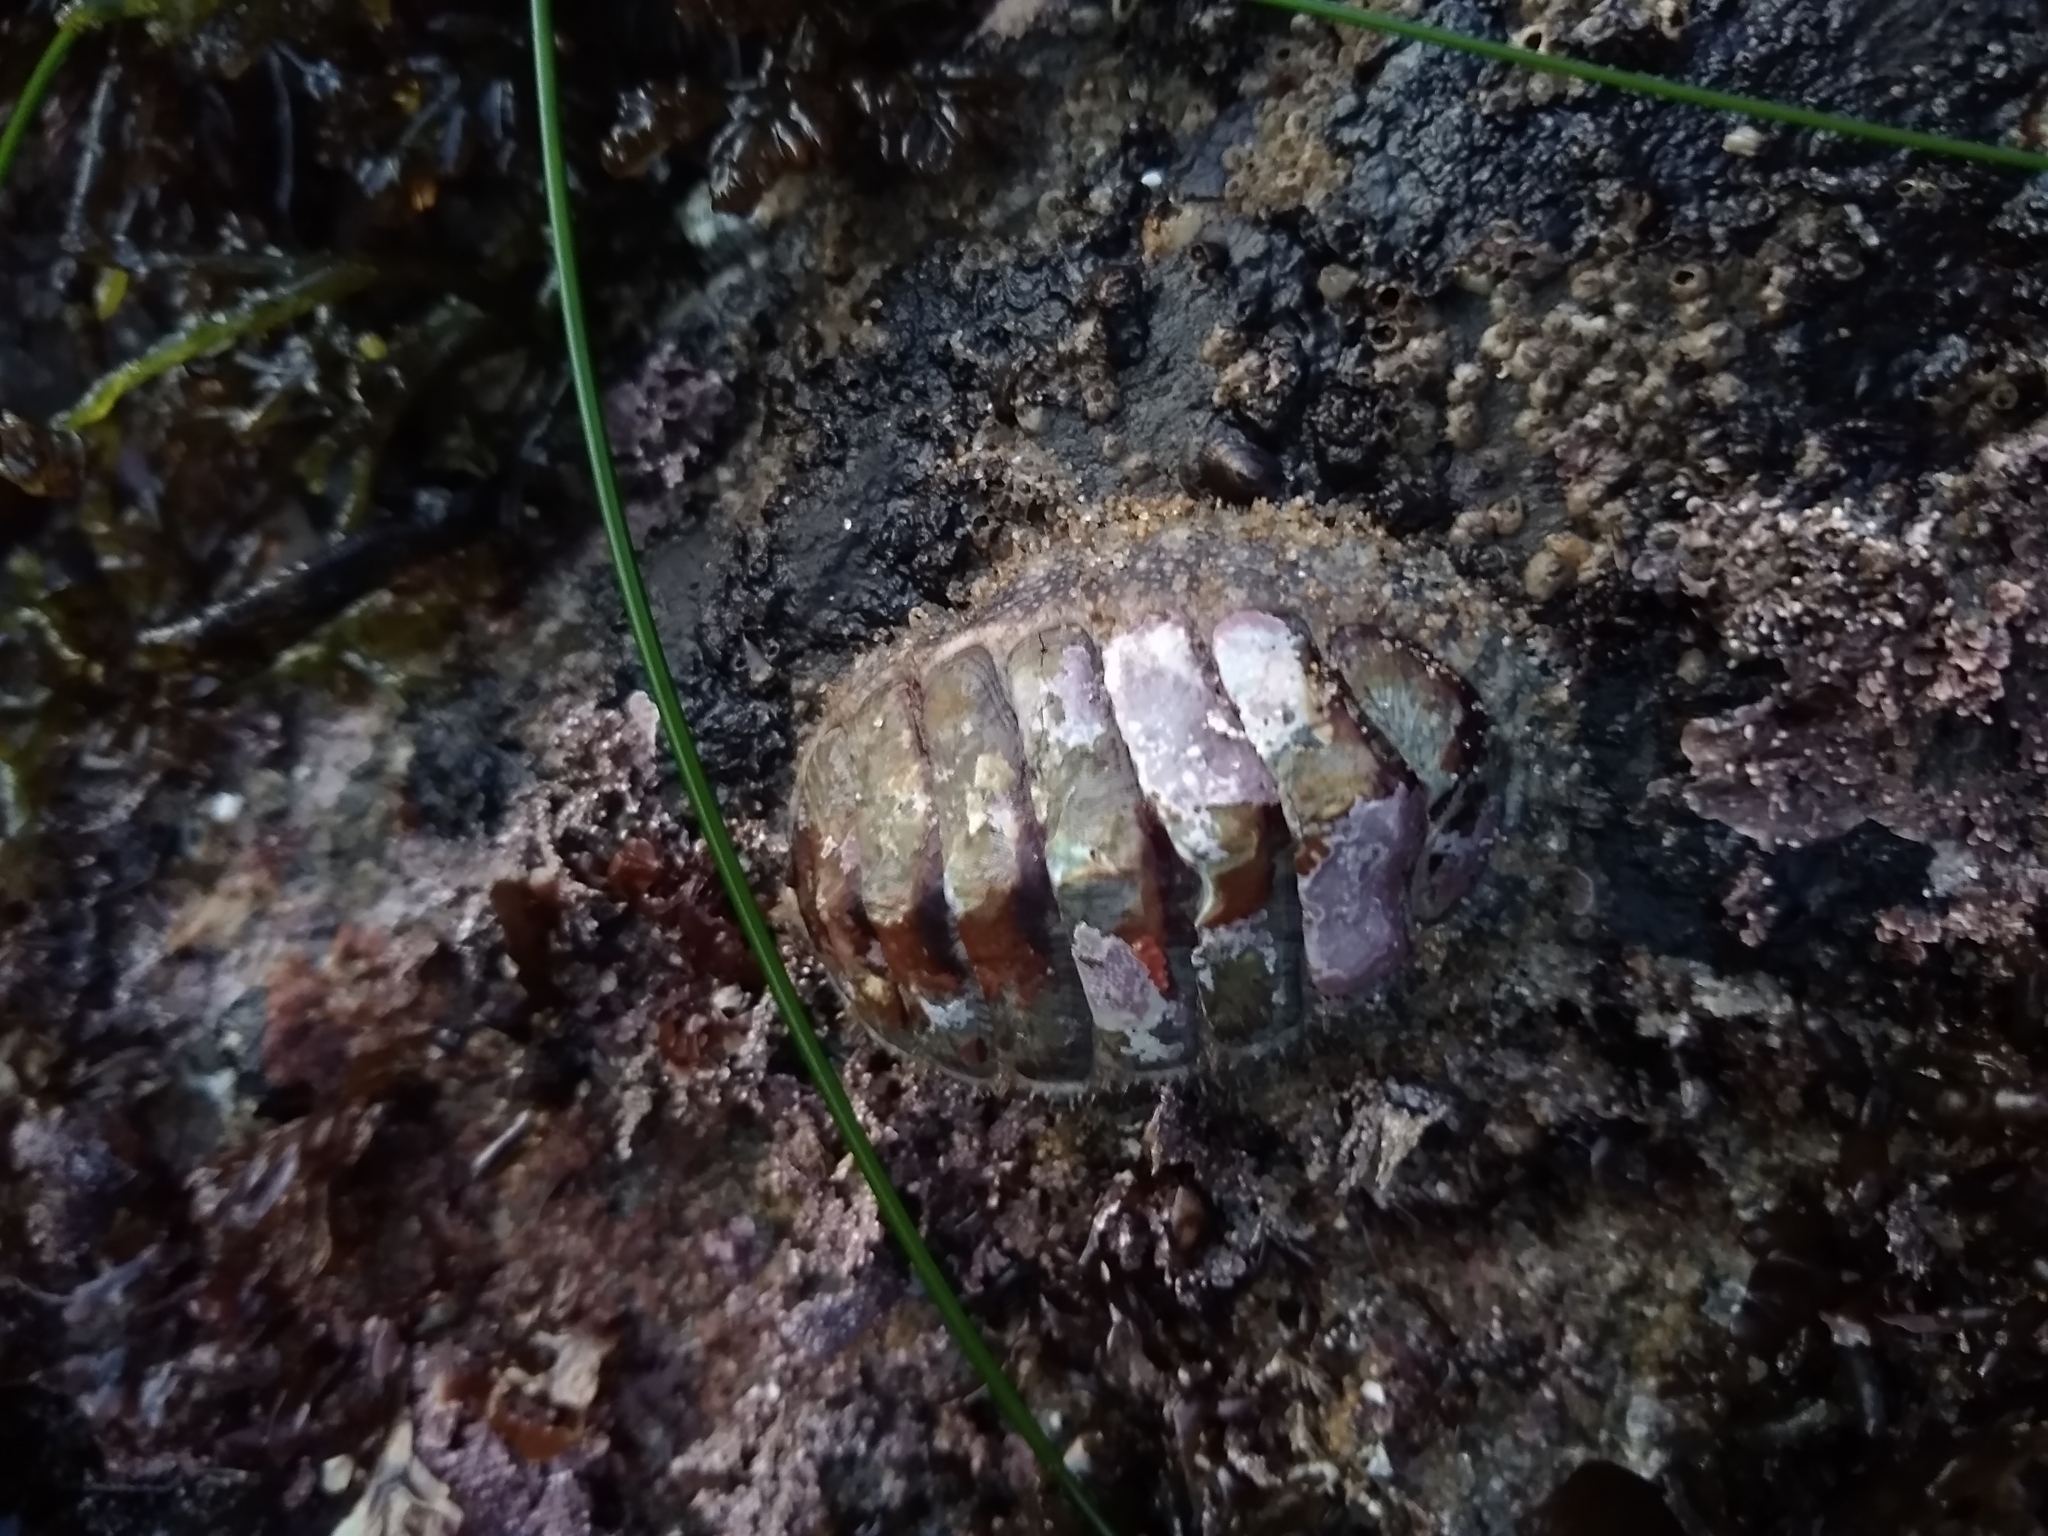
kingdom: Animalia
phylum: Mollusca
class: Polyplacophora
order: Chitonida
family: Mopaliidae
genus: Mopalia
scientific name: Mopalia lignosa
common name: Woody chiton
